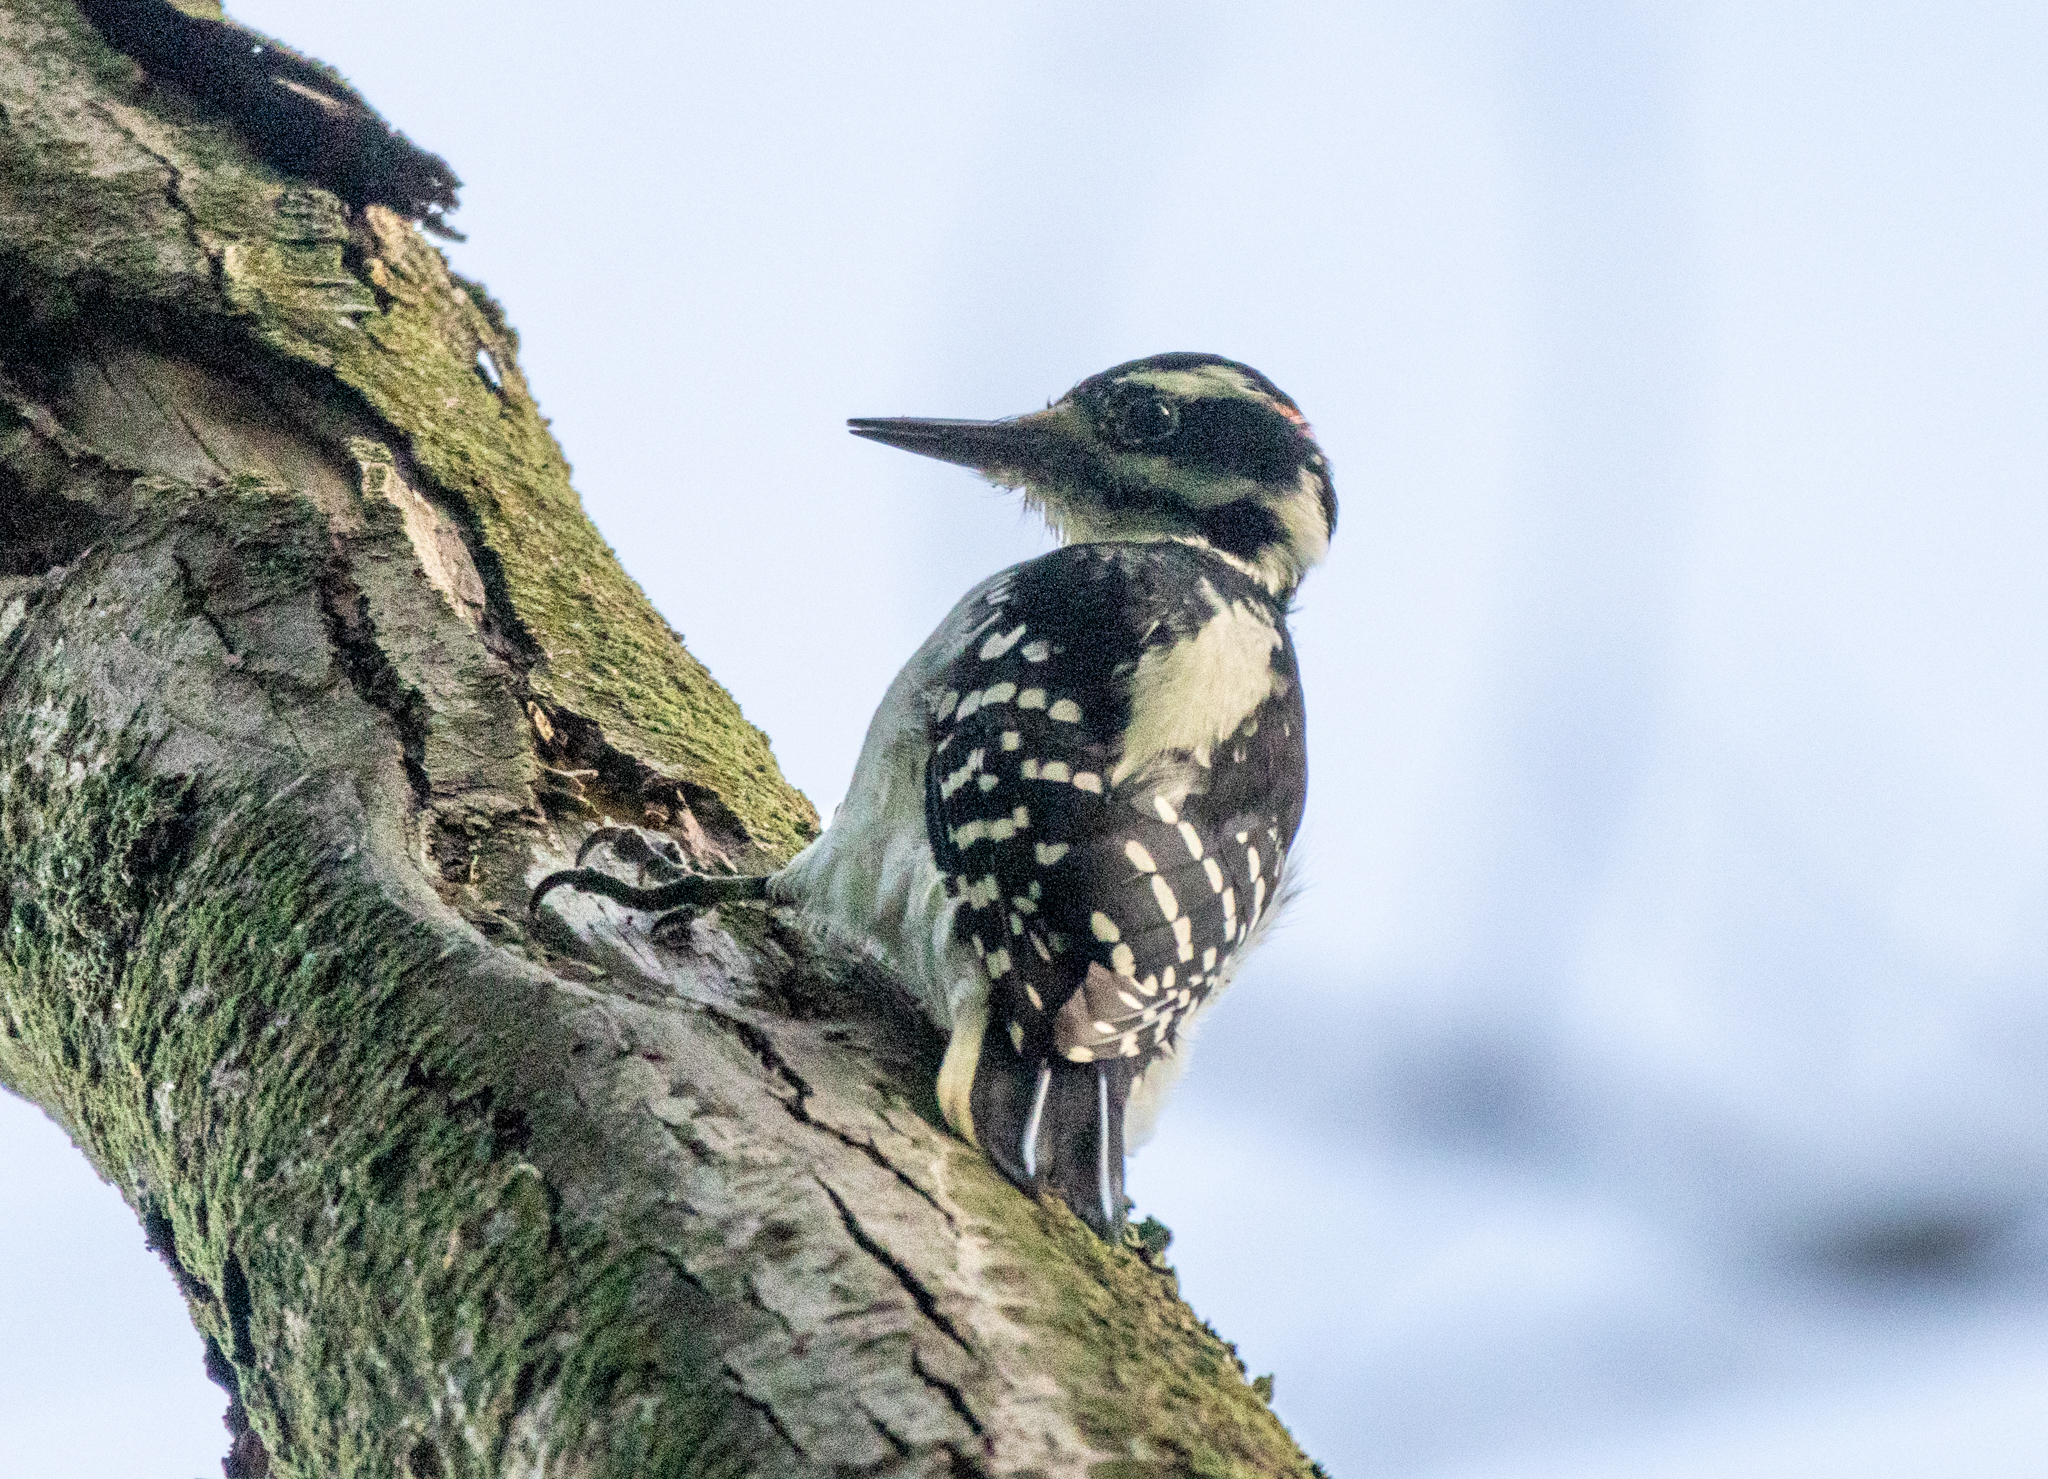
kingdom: Animalia
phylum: Chordata
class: Aves
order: Piciformes
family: Picidae
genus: Leuconotopicus
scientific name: Leuconotopicus villosus
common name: Hairy woodpecker
